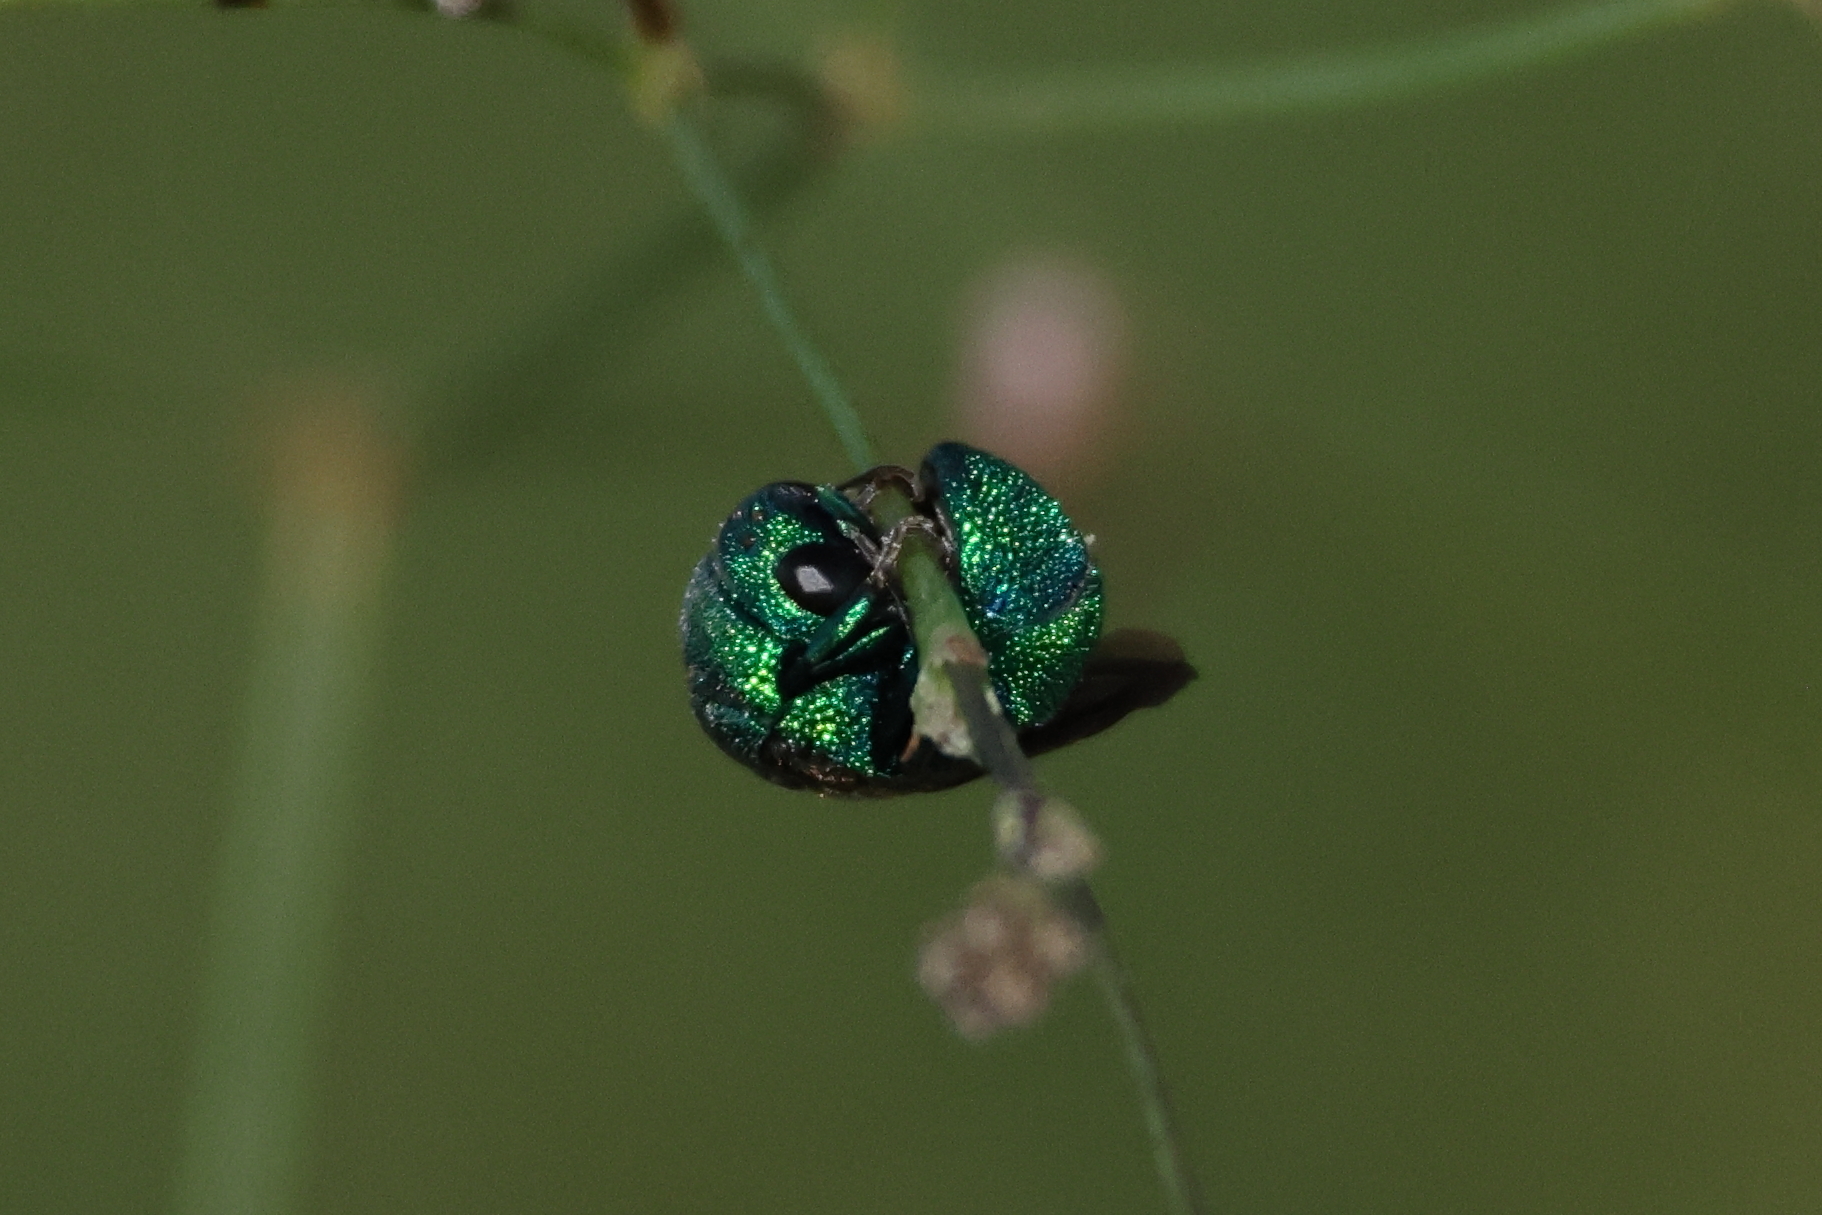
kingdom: Animalia
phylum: Arthropoda
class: Insecta
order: Hymenoptera
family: Chrysididae
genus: Holopyga
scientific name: Holopyga
